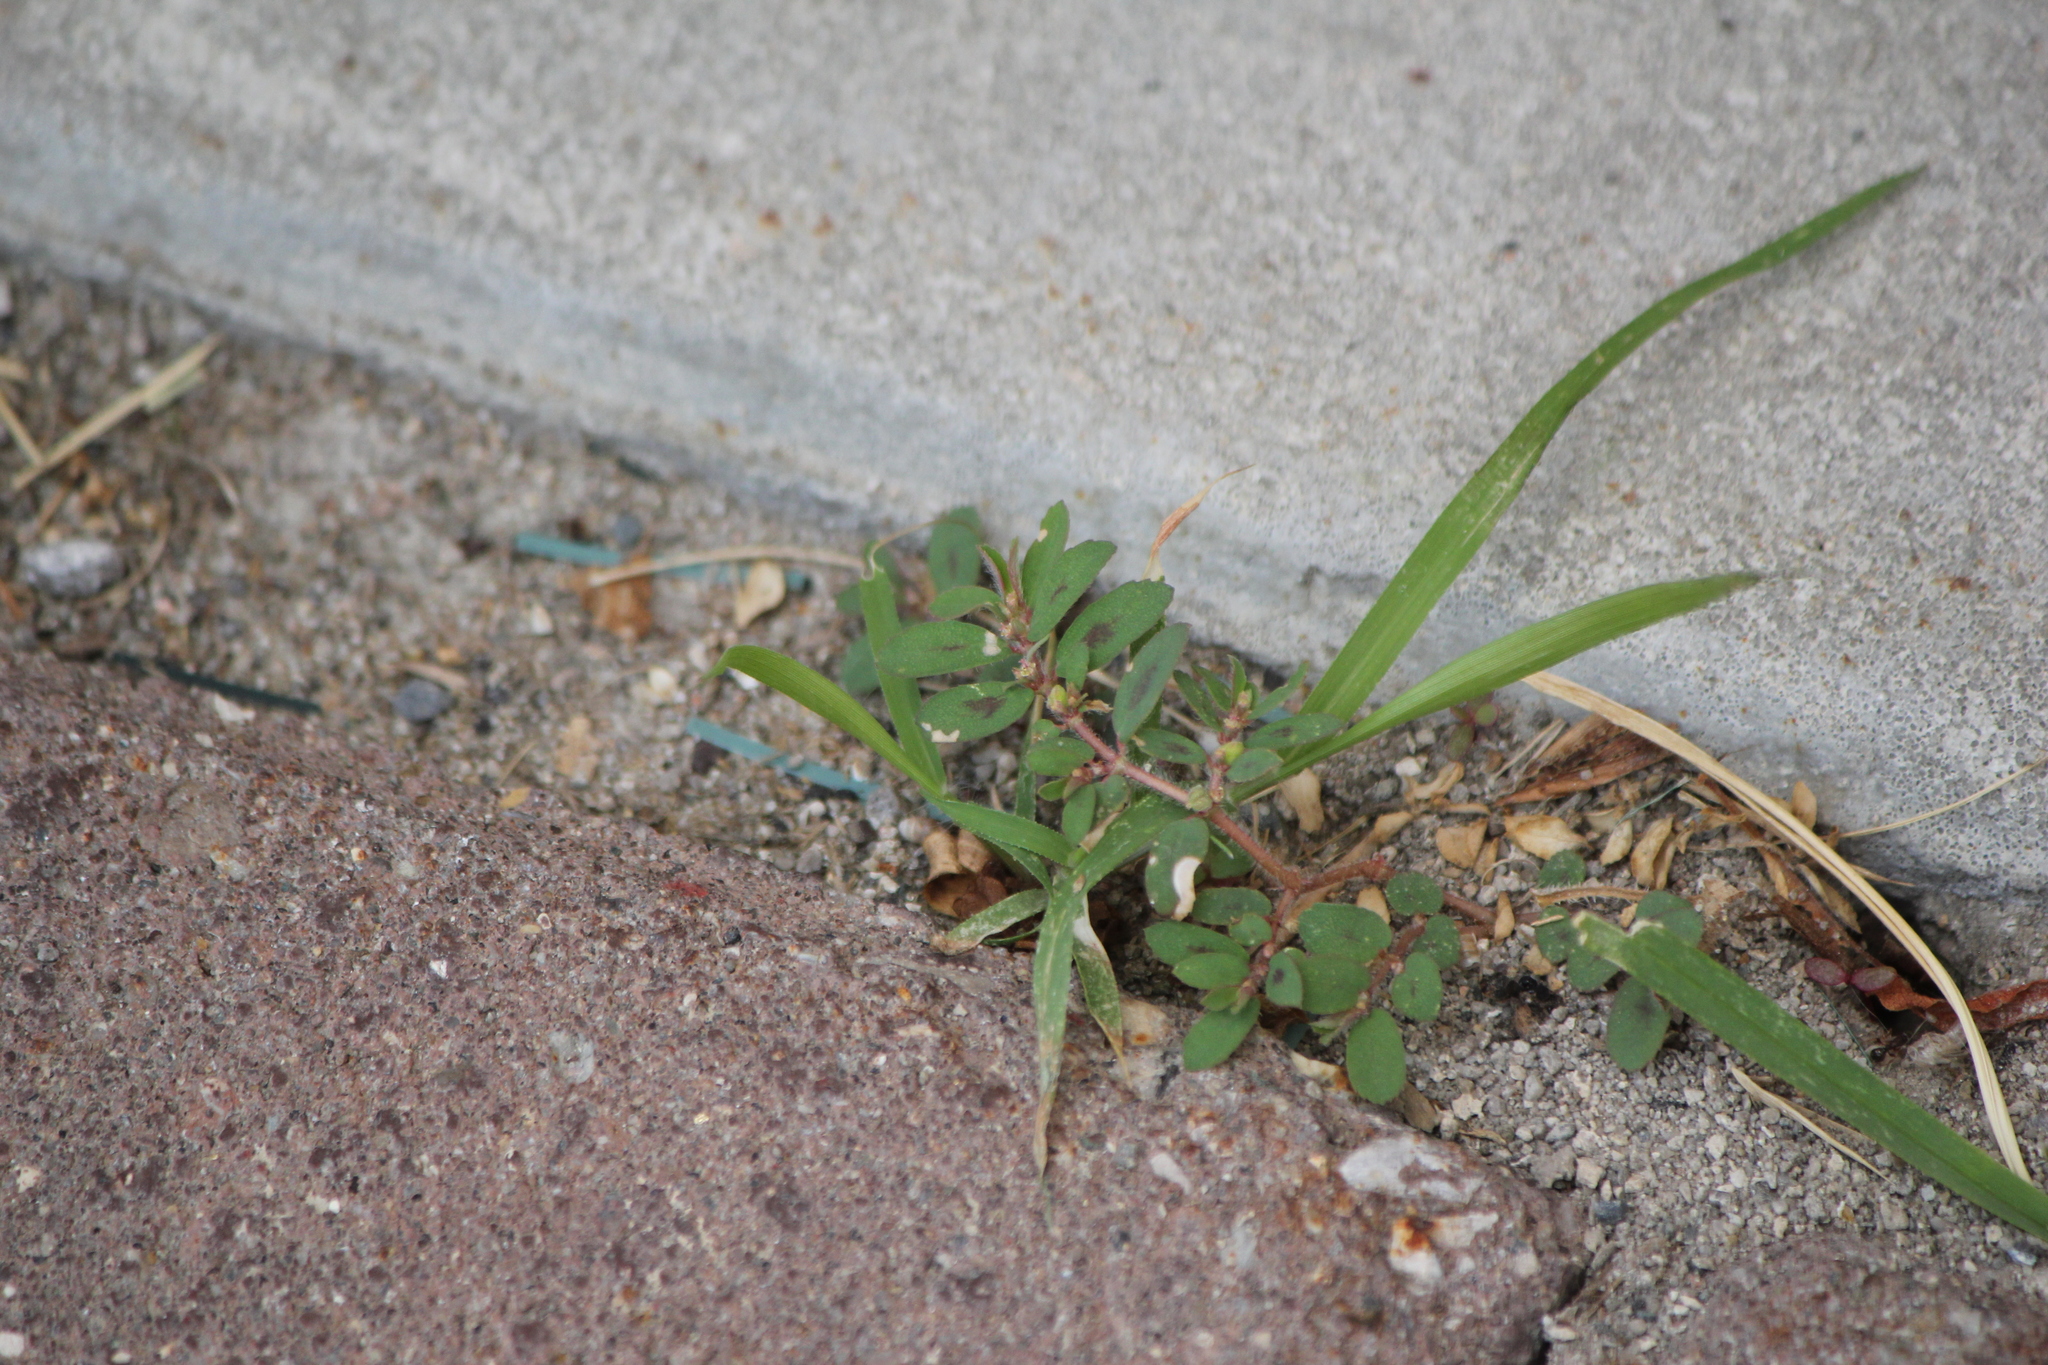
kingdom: Plantae
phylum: Tracheophyta
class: Magnoliopsida
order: Malpighiales
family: Euphorbiaceae
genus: Euphorbia
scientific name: Euphorbia maculata
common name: Spotted spurge
